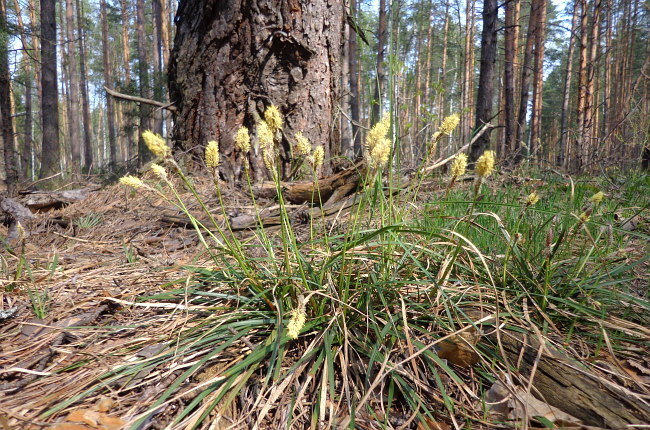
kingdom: Plantae
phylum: Tracheophyta
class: Liliopsida
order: Poales
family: Cyperaceae
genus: Carex
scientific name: Carex ericetorum
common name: Rare spring-sedge
